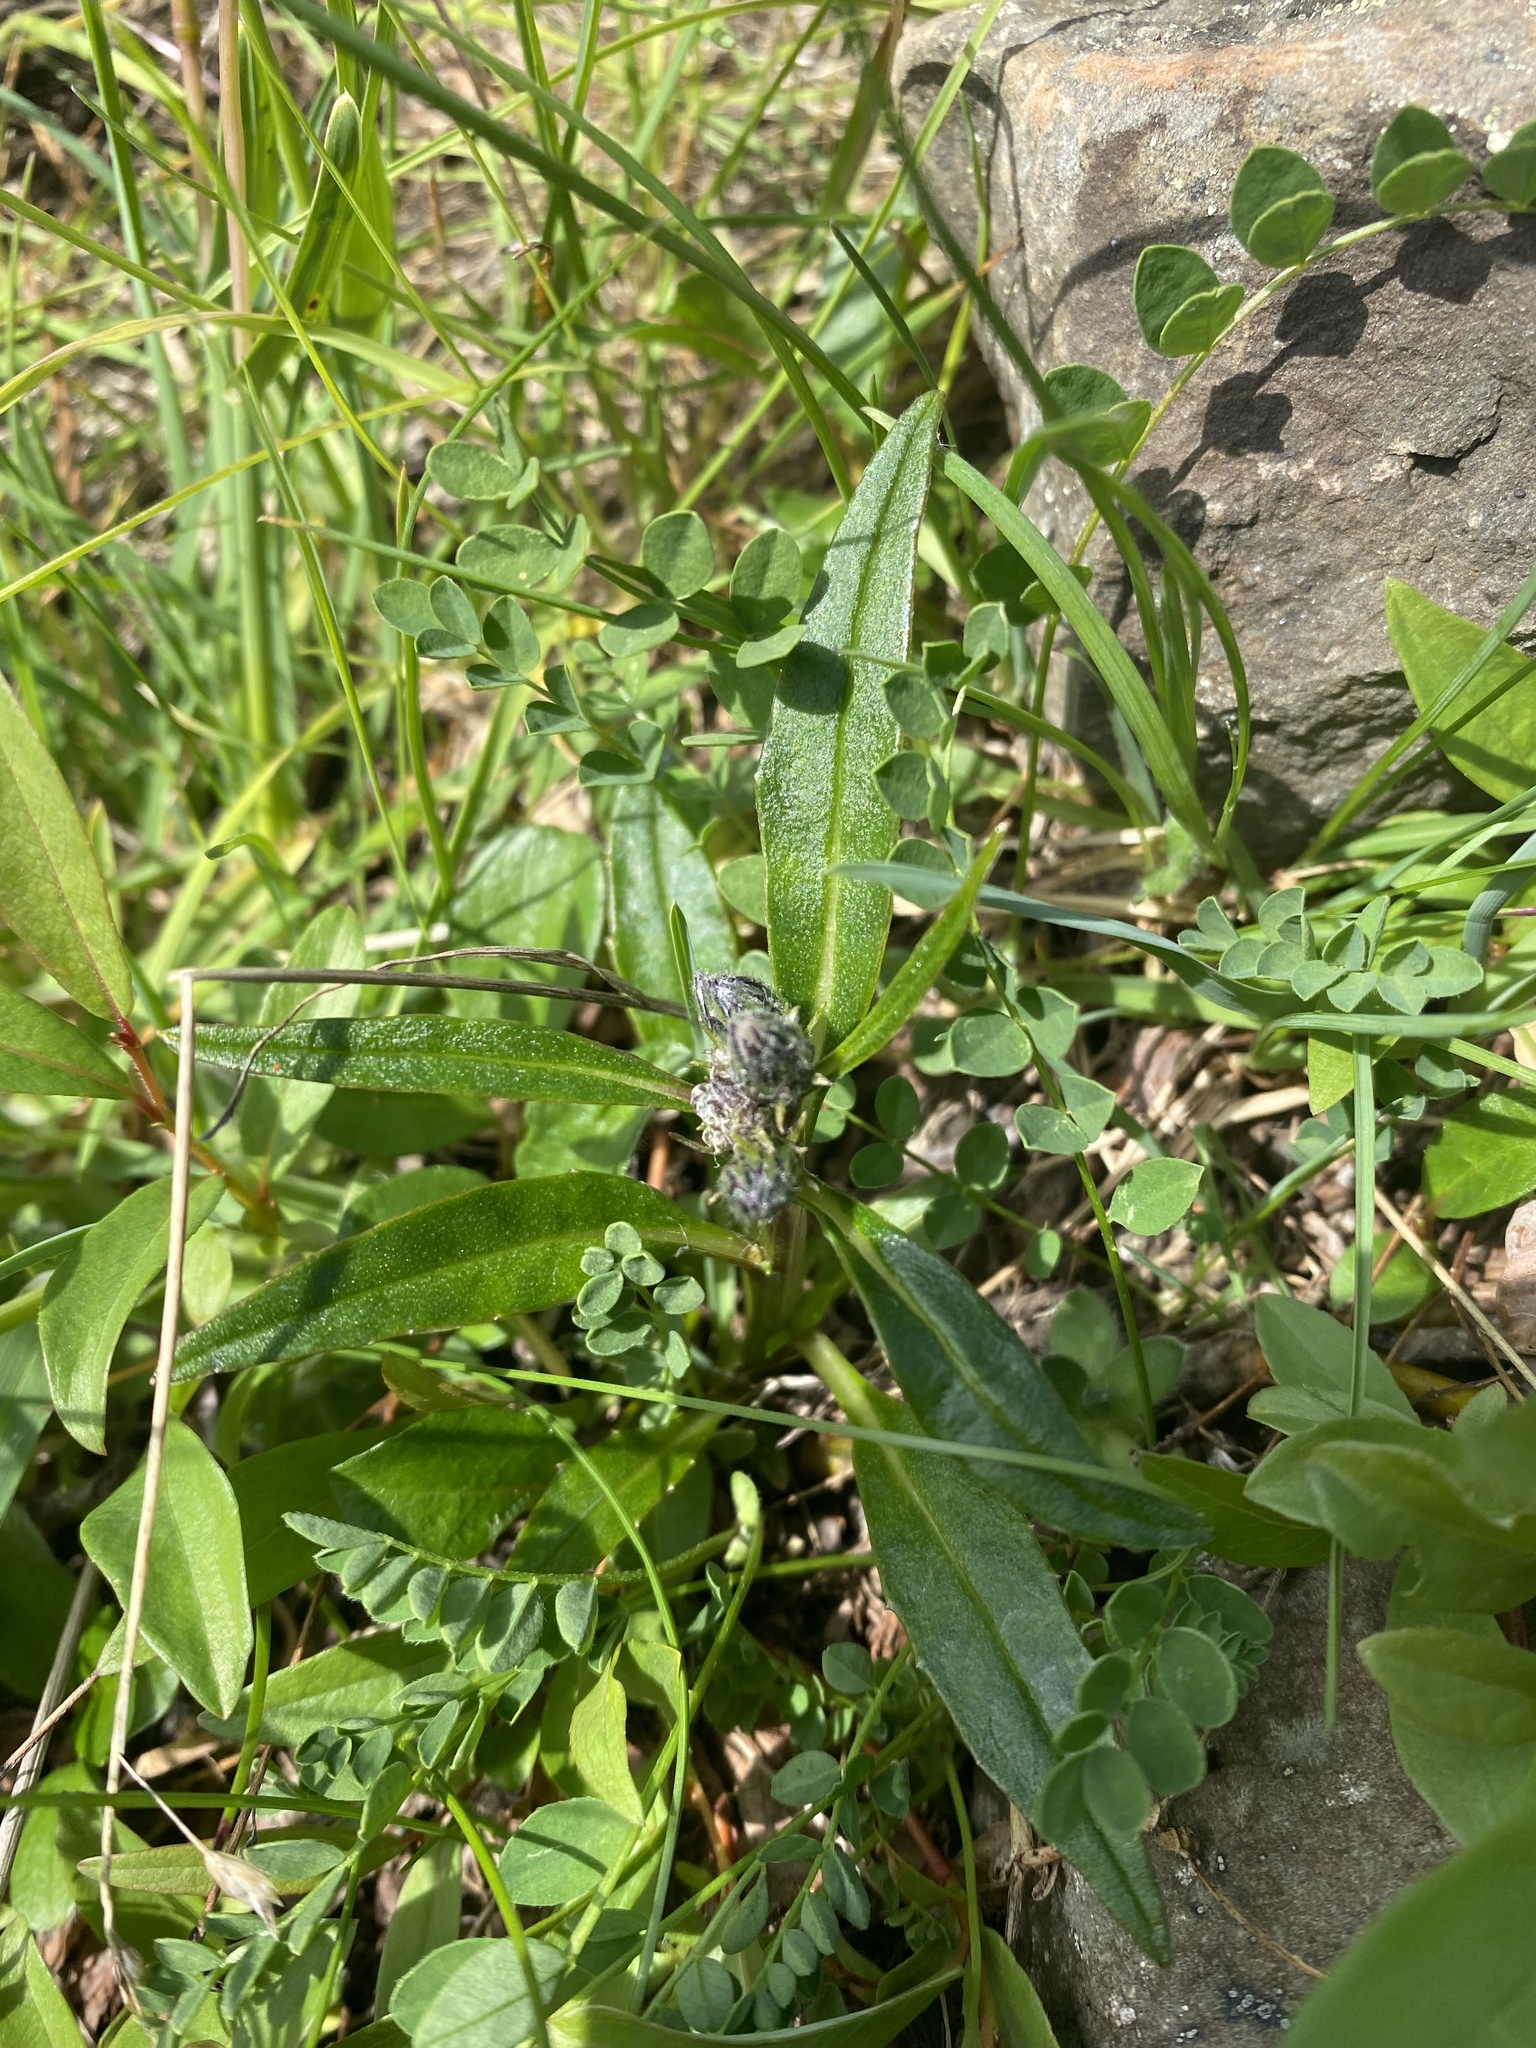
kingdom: Plantae
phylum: Tracheophyta
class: Magnoliopsida
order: Asterales
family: Asteraceae
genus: Saussurea
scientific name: Saussurea tilesii
